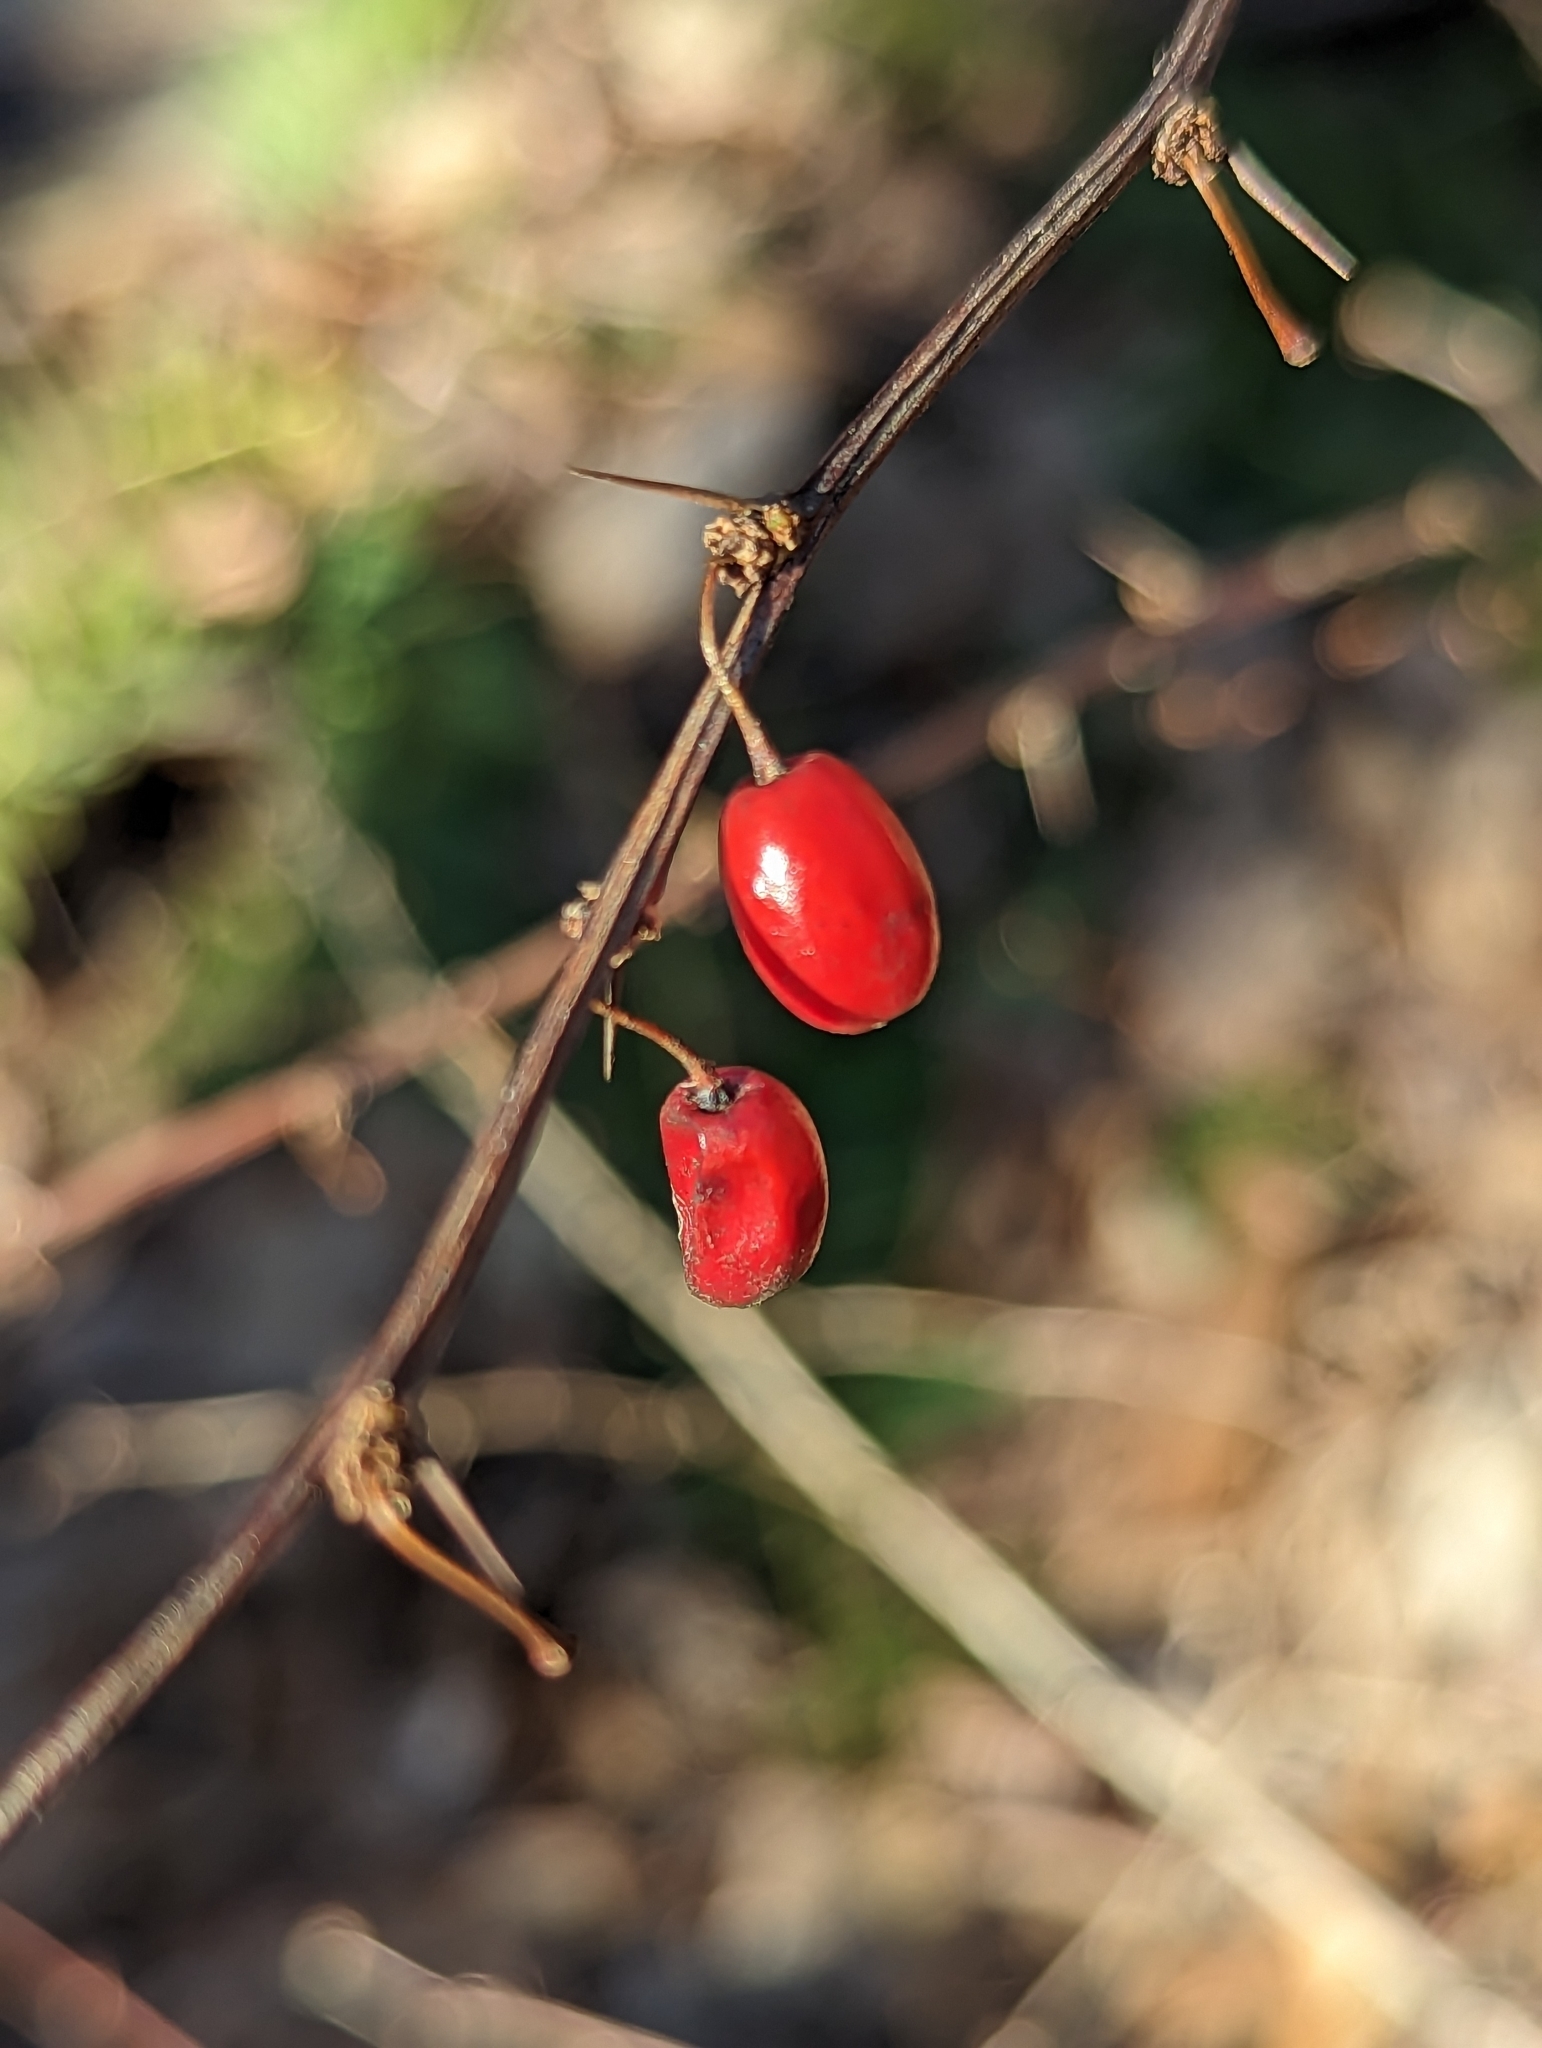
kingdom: Plantae
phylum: Tracheophyta
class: Magnoliopsida
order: Ranunculales
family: Berberidaceae
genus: Berberis
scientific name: Berberis thunbergii
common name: Japanese barberry
